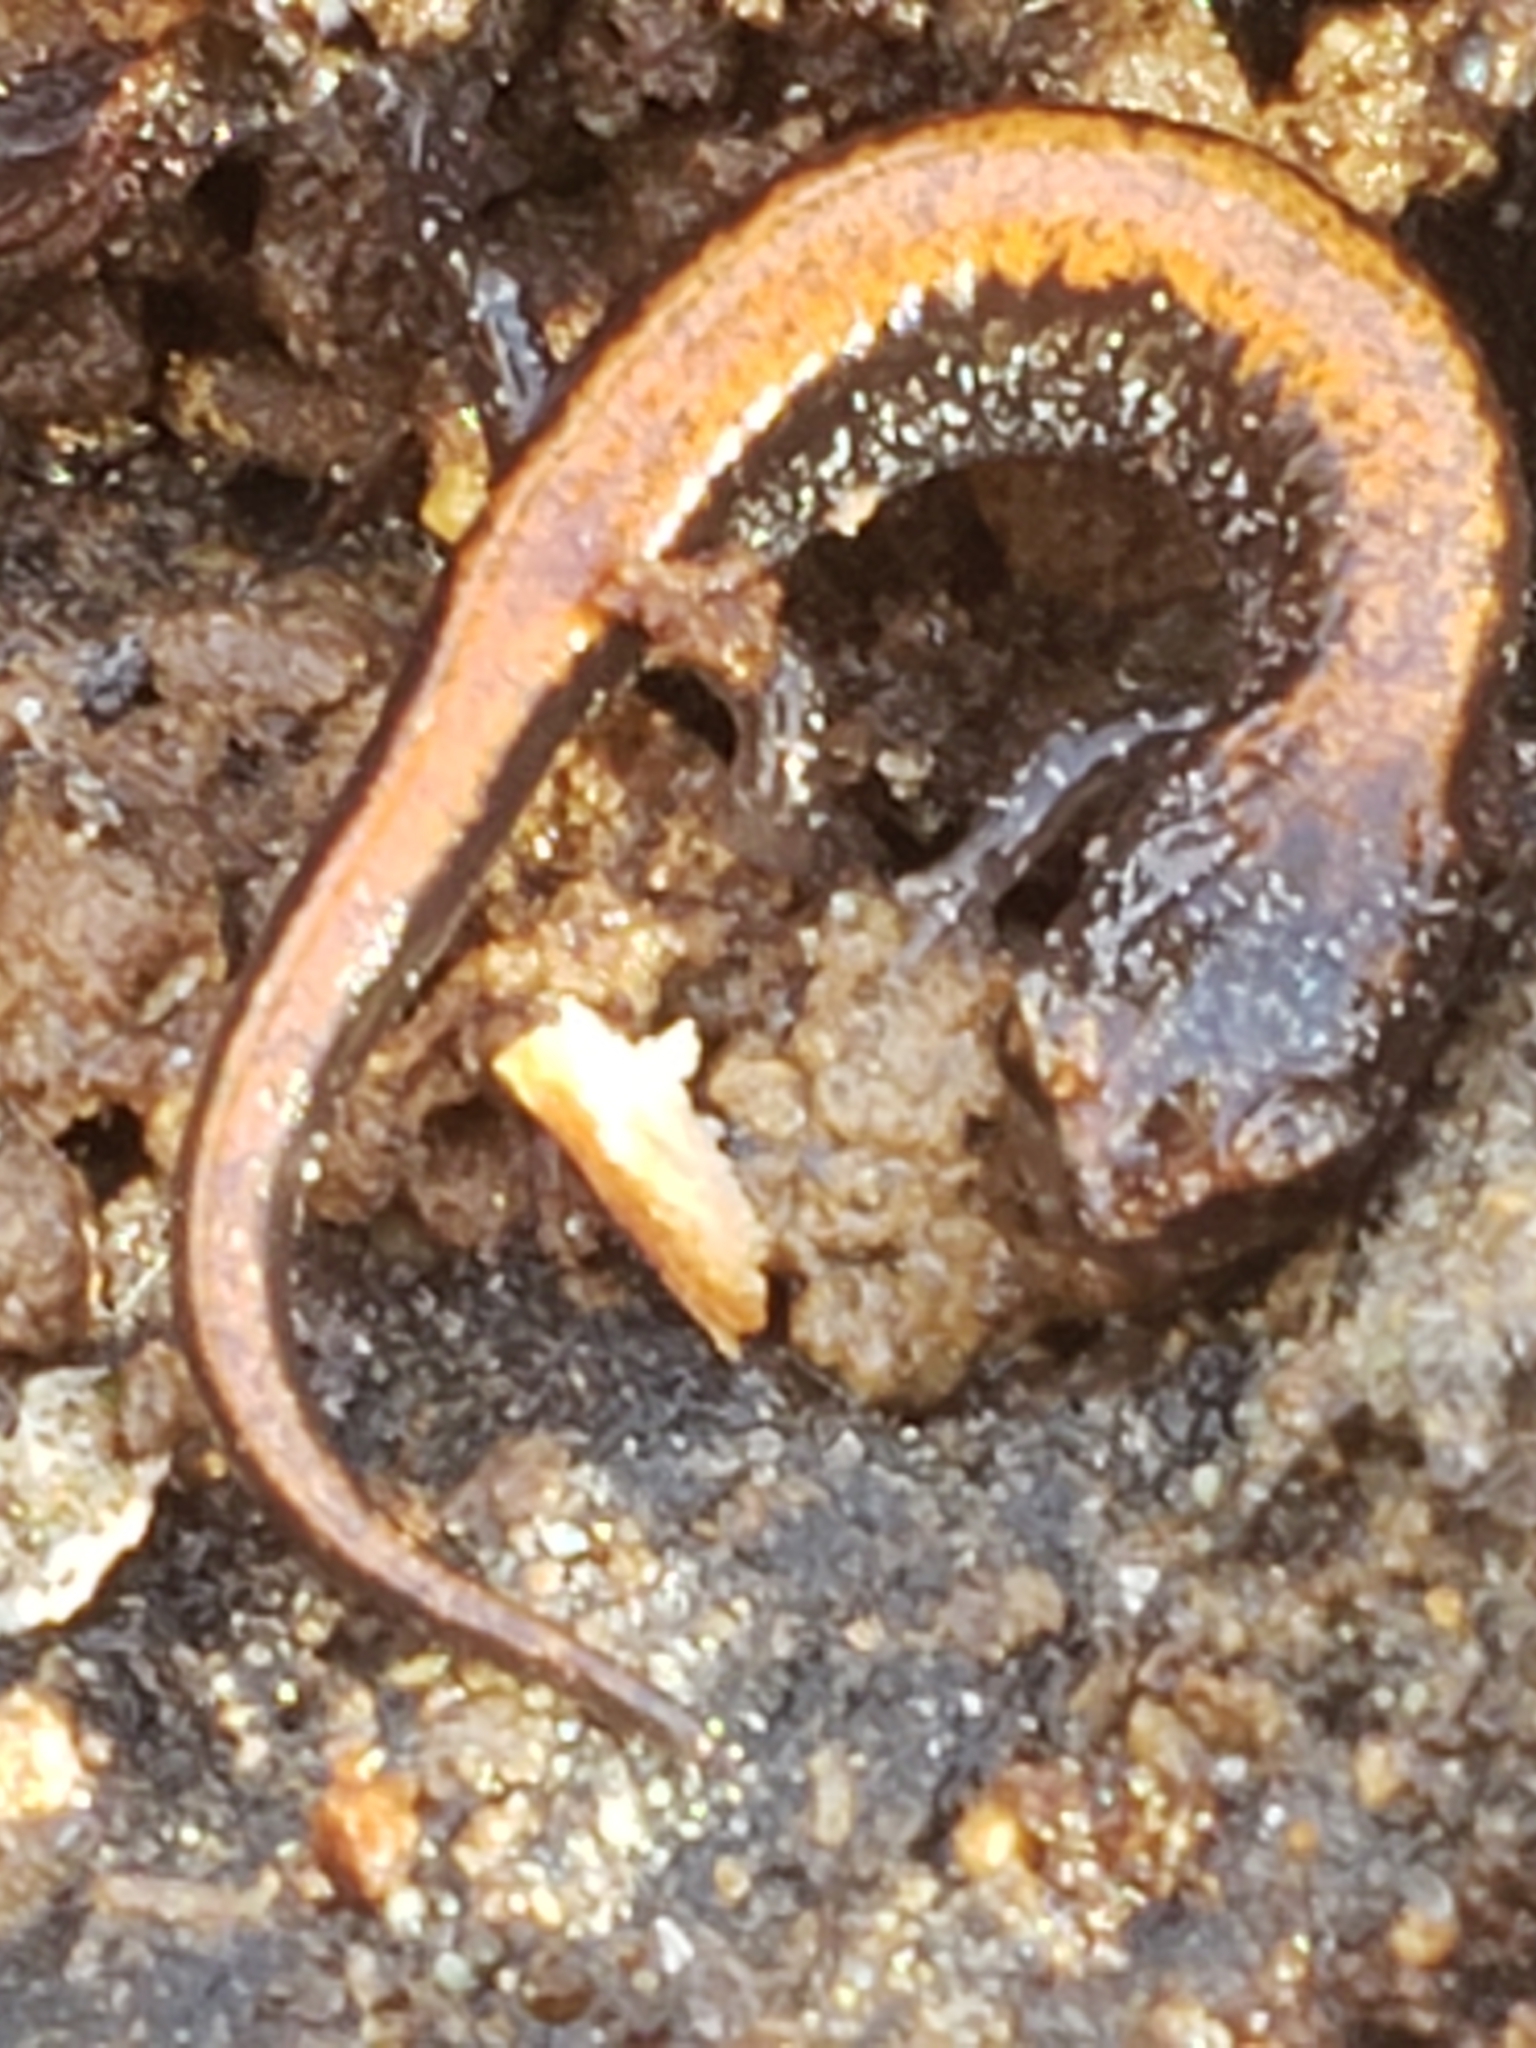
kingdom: Animalia
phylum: Chordata
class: Amphibia
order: Caudata
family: Plethodontidae
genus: Plethodon
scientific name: Plethodon cinereus
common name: Redback salamander
